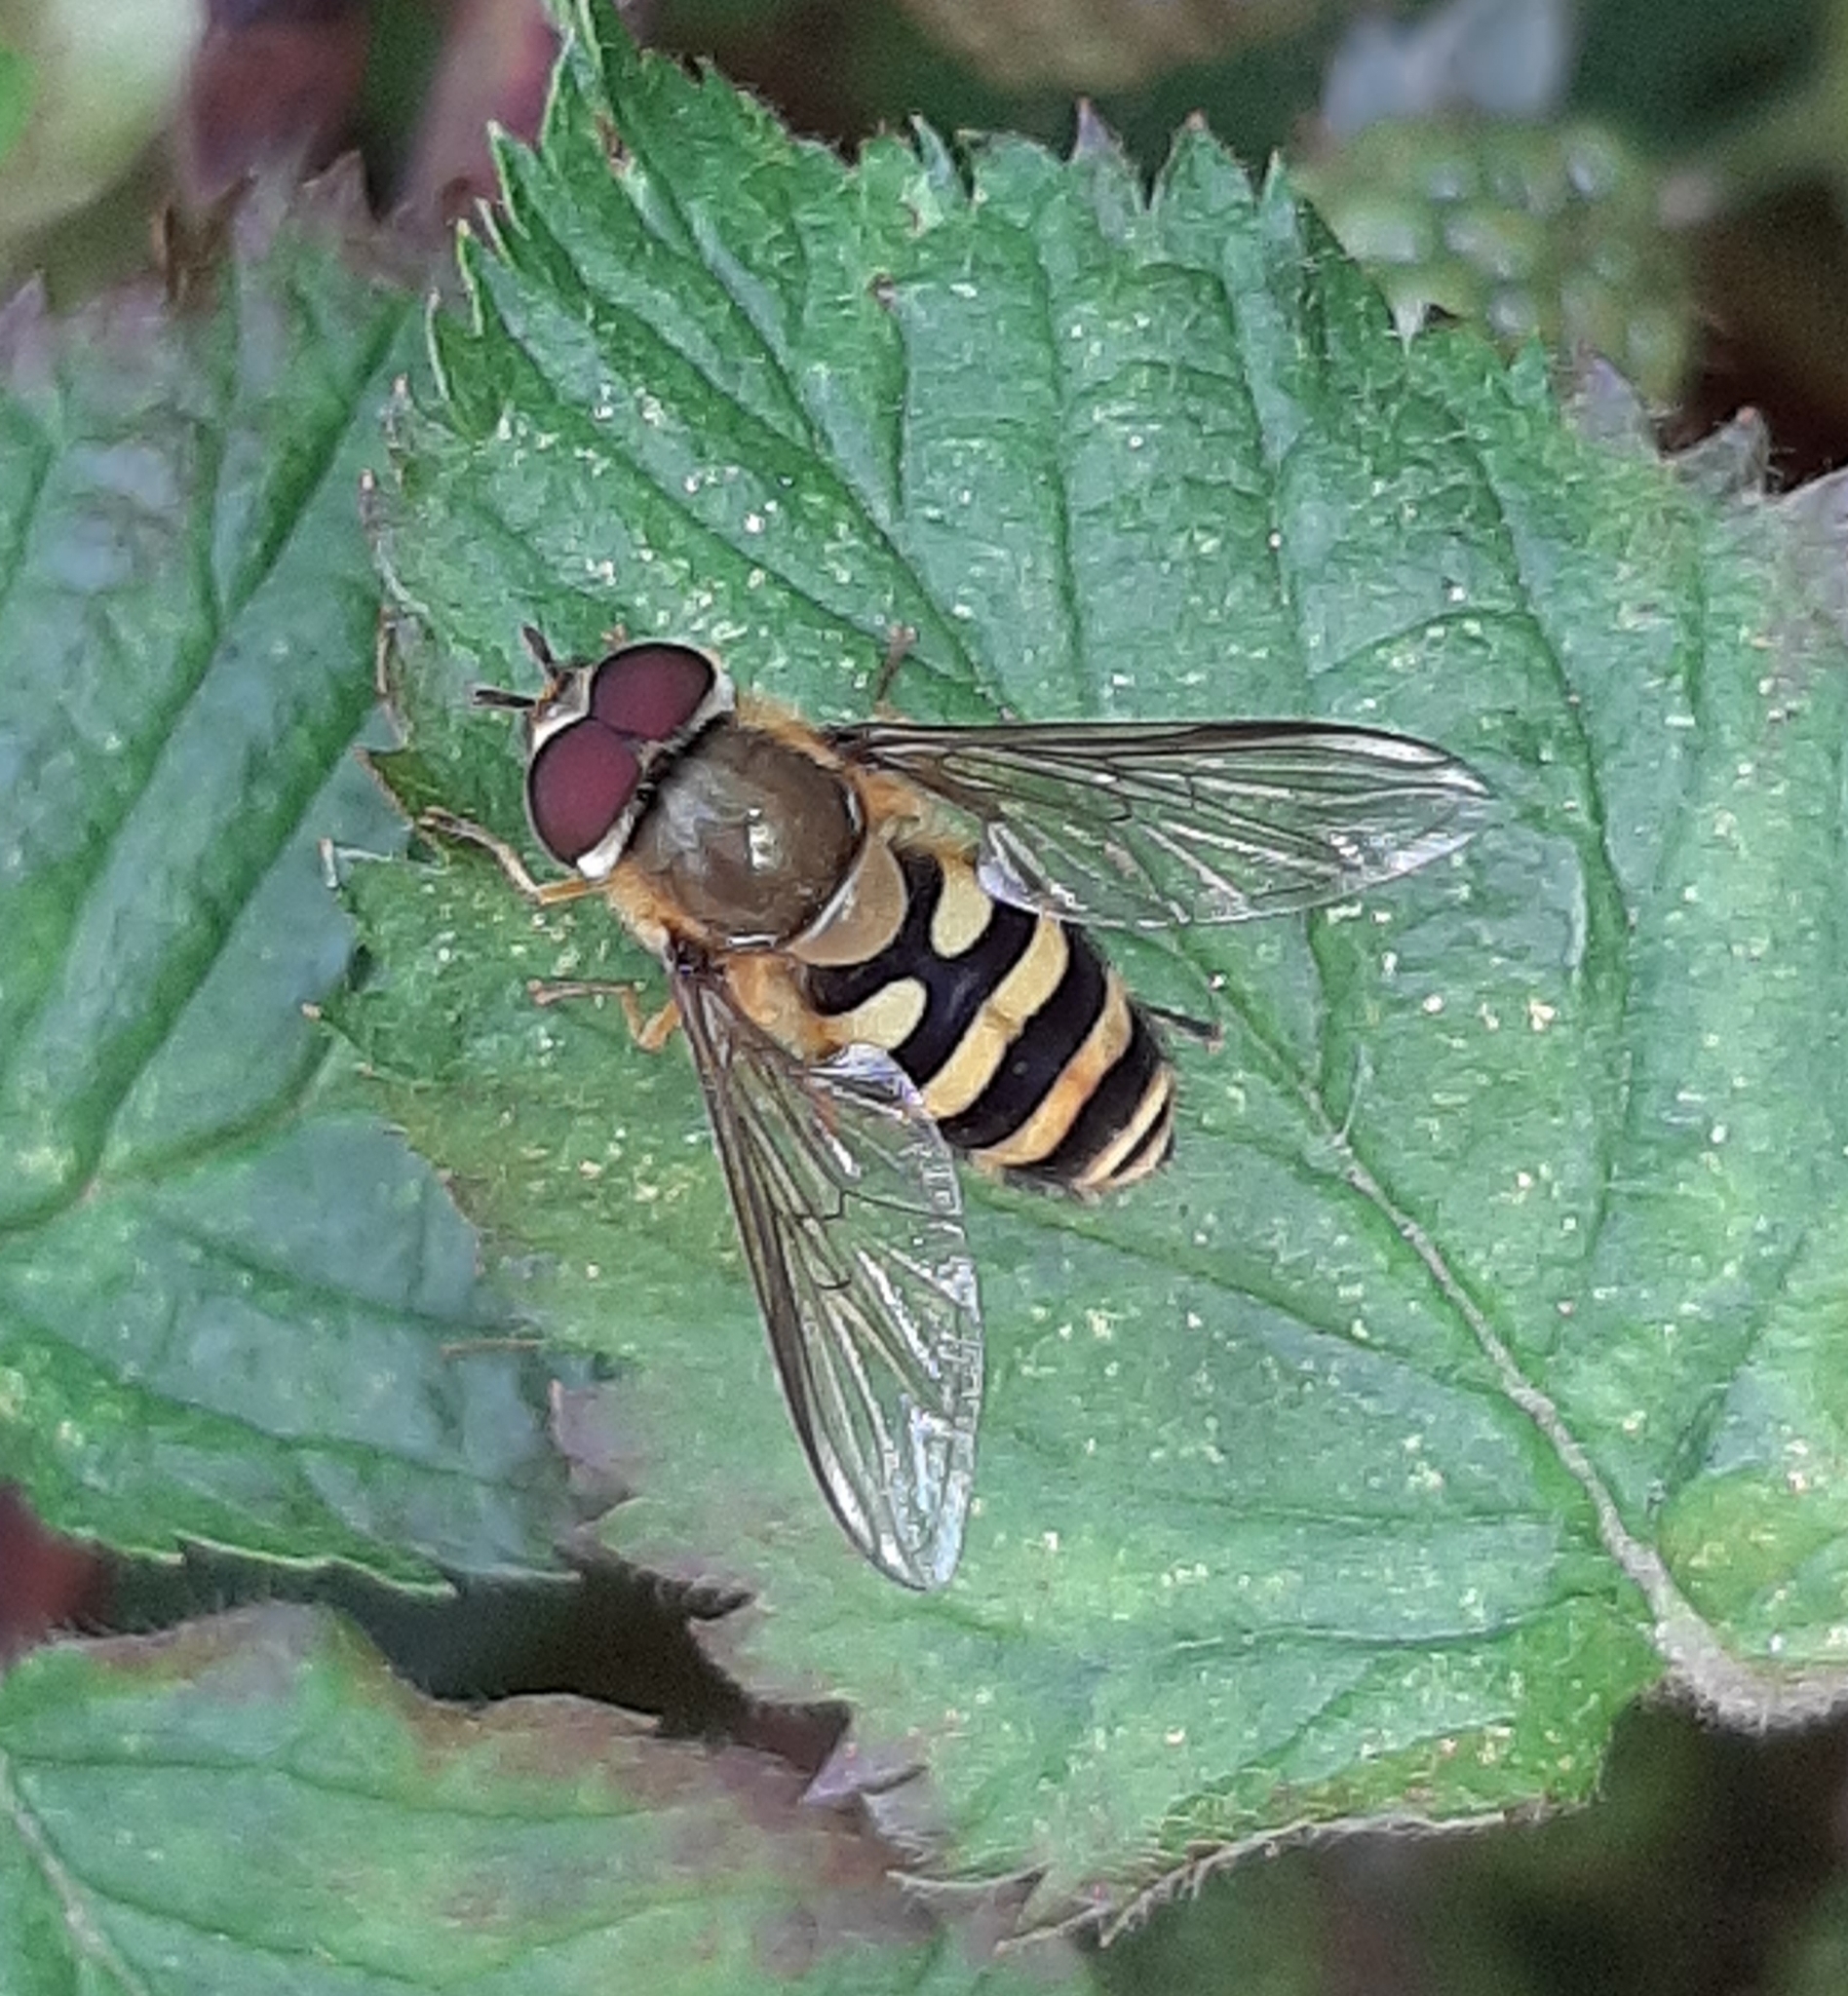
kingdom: Animalia
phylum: Arthropoda
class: Insecta
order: Diptera
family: Syrphidae
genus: Syrphus
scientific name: Syrphus
